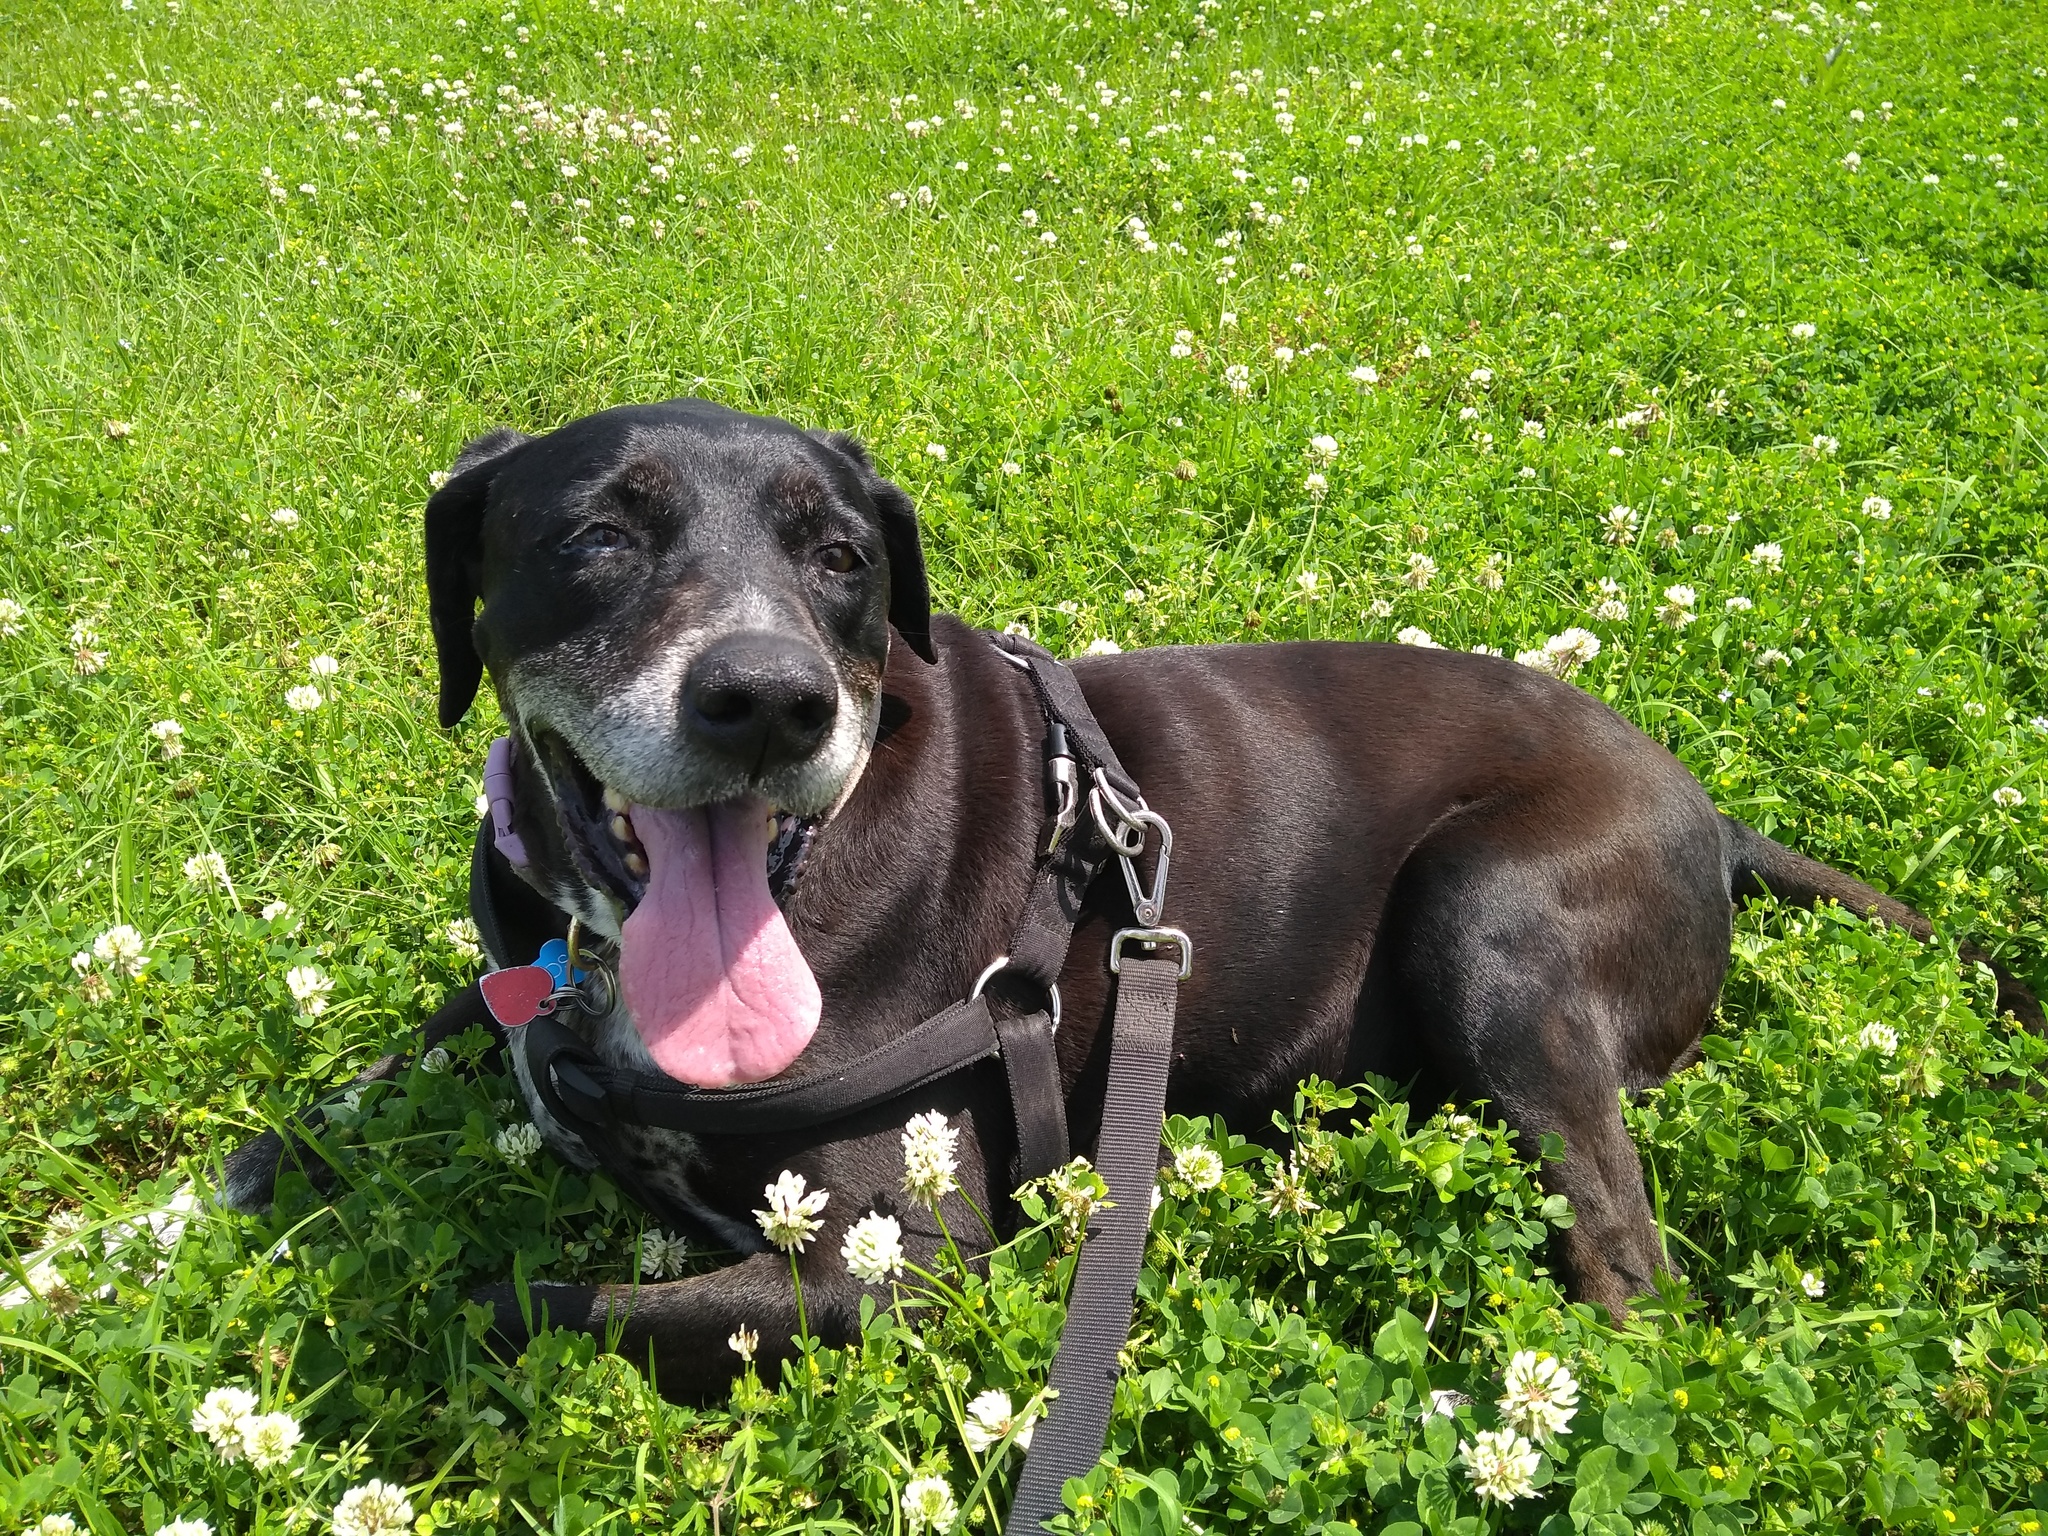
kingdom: Plantae
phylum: Tracheophyta
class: Magnoliopsida
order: Fabales
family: Fabaceae
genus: Trifolium
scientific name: Trifolium repens
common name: White clover
